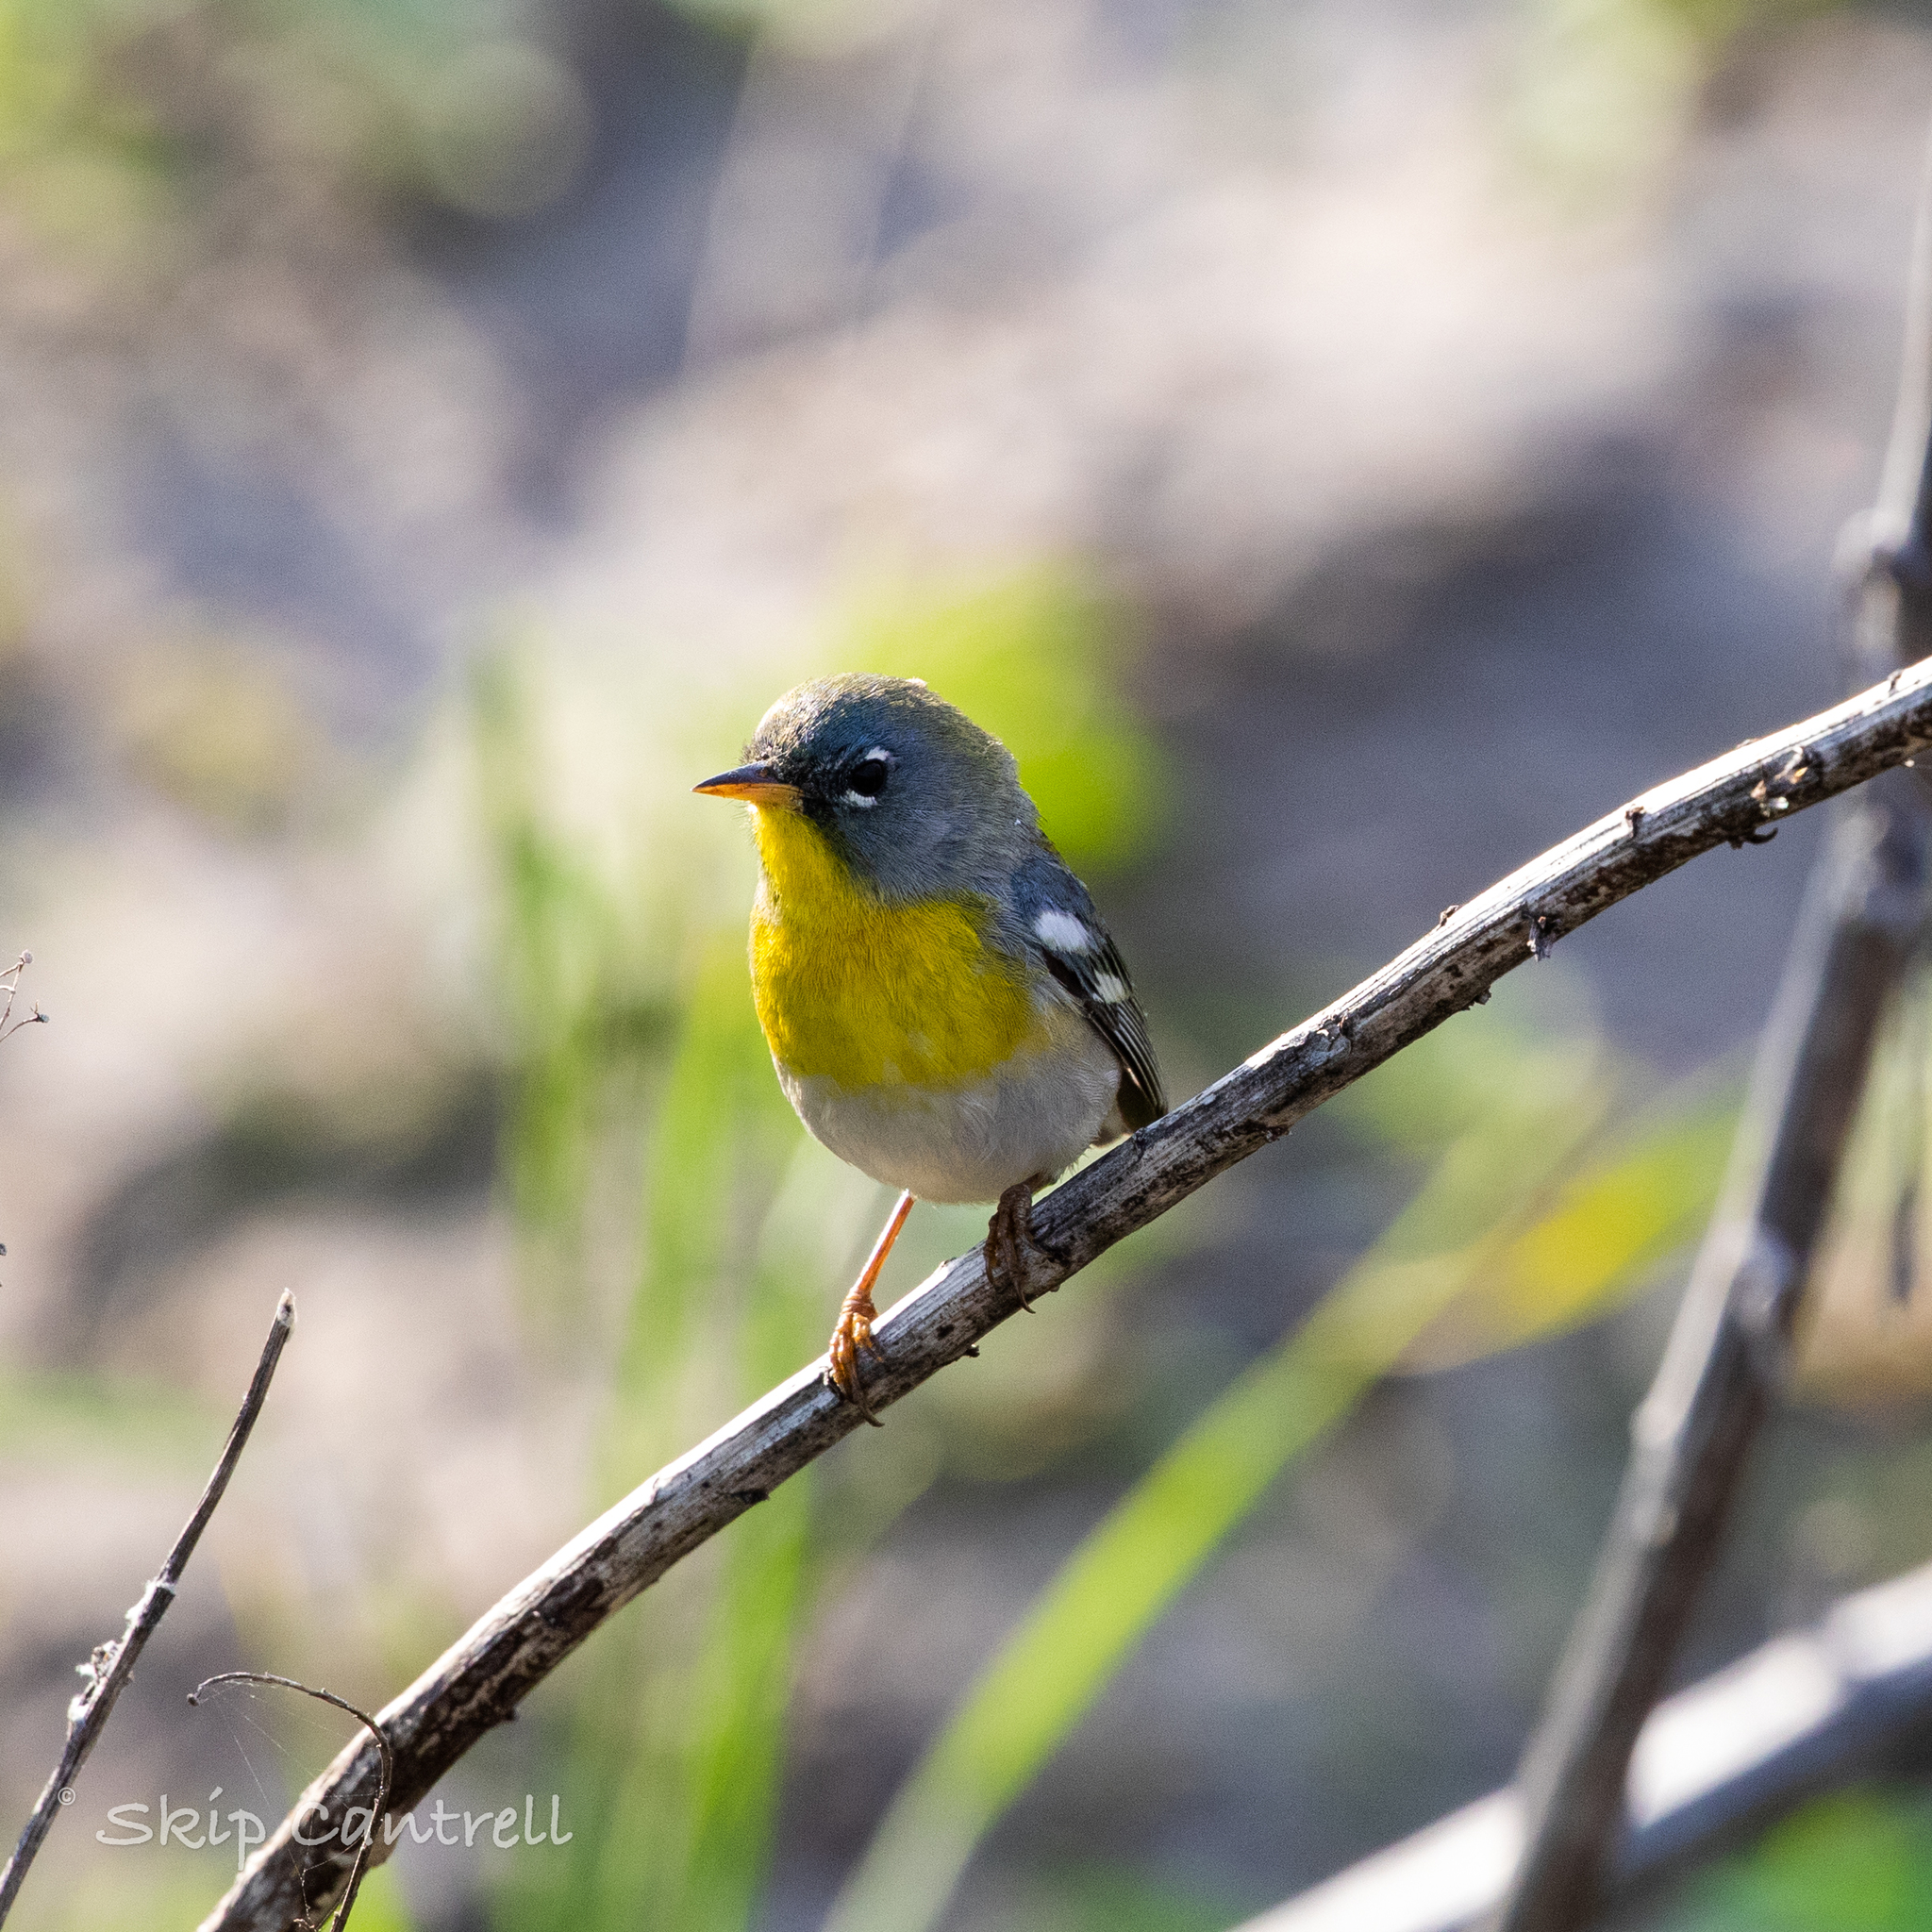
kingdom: Animalia
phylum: Chordata
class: Aves
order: Passeriformes
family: Parulidae
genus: Setophaga
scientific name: Setophaga americana
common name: Northern parula
